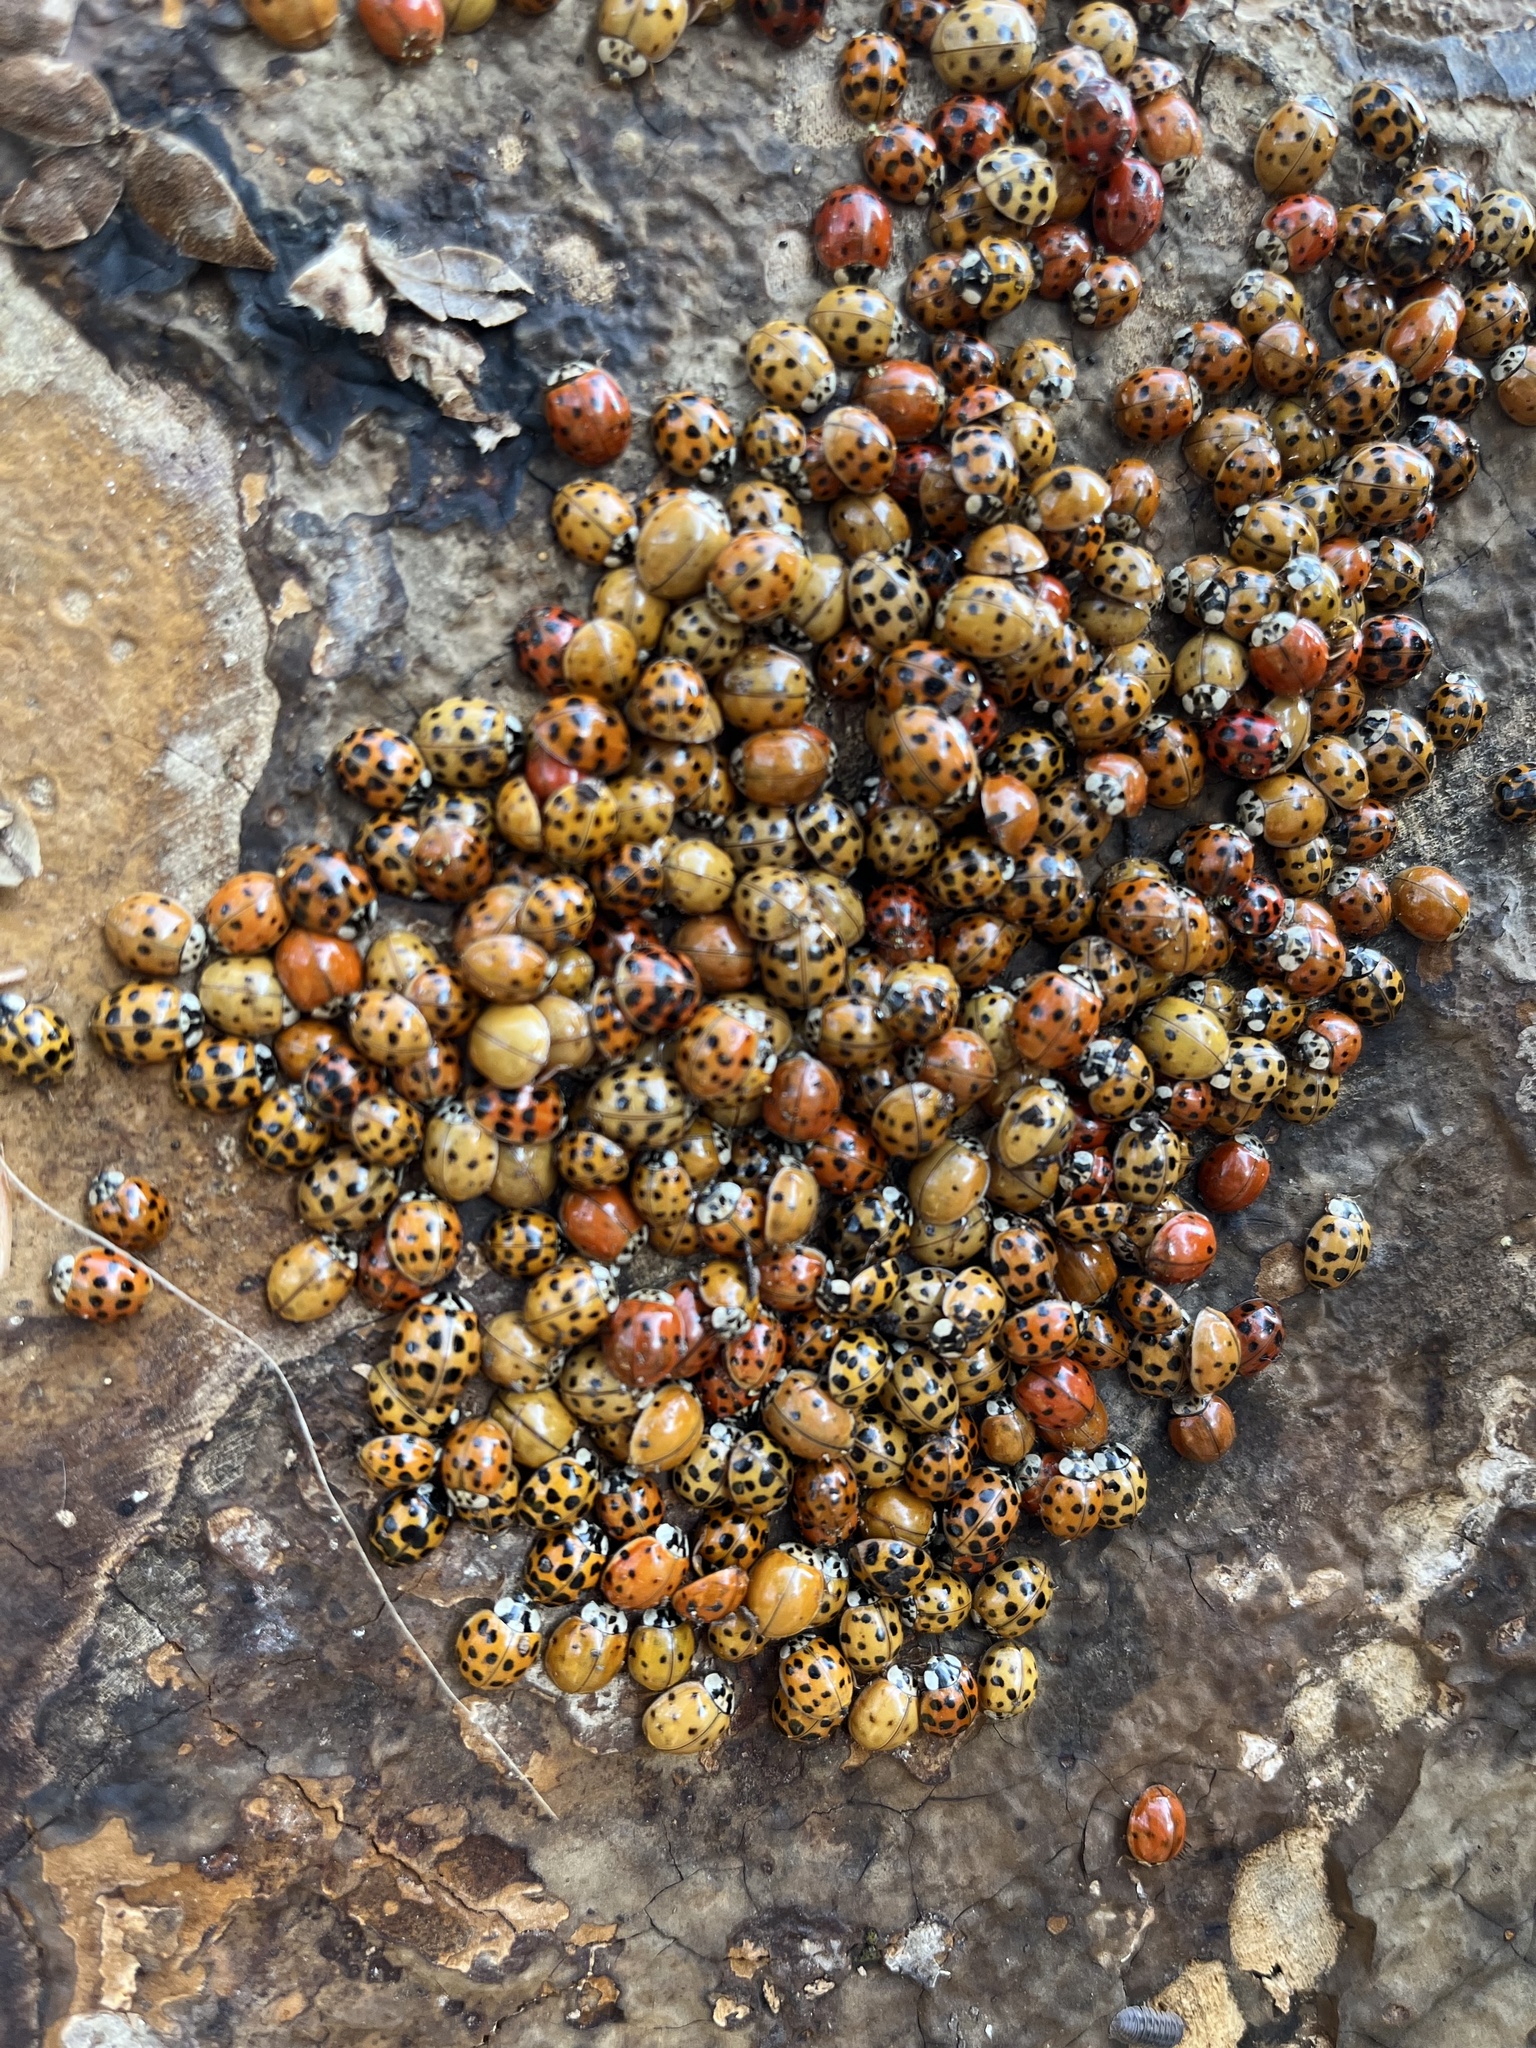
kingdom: Animalia
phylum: Arthropoda
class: Insecta
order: Coleoptera
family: Coccinellidae
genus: Harmonia
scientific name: Harmonia axyridis
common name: Harlequin ladybird
